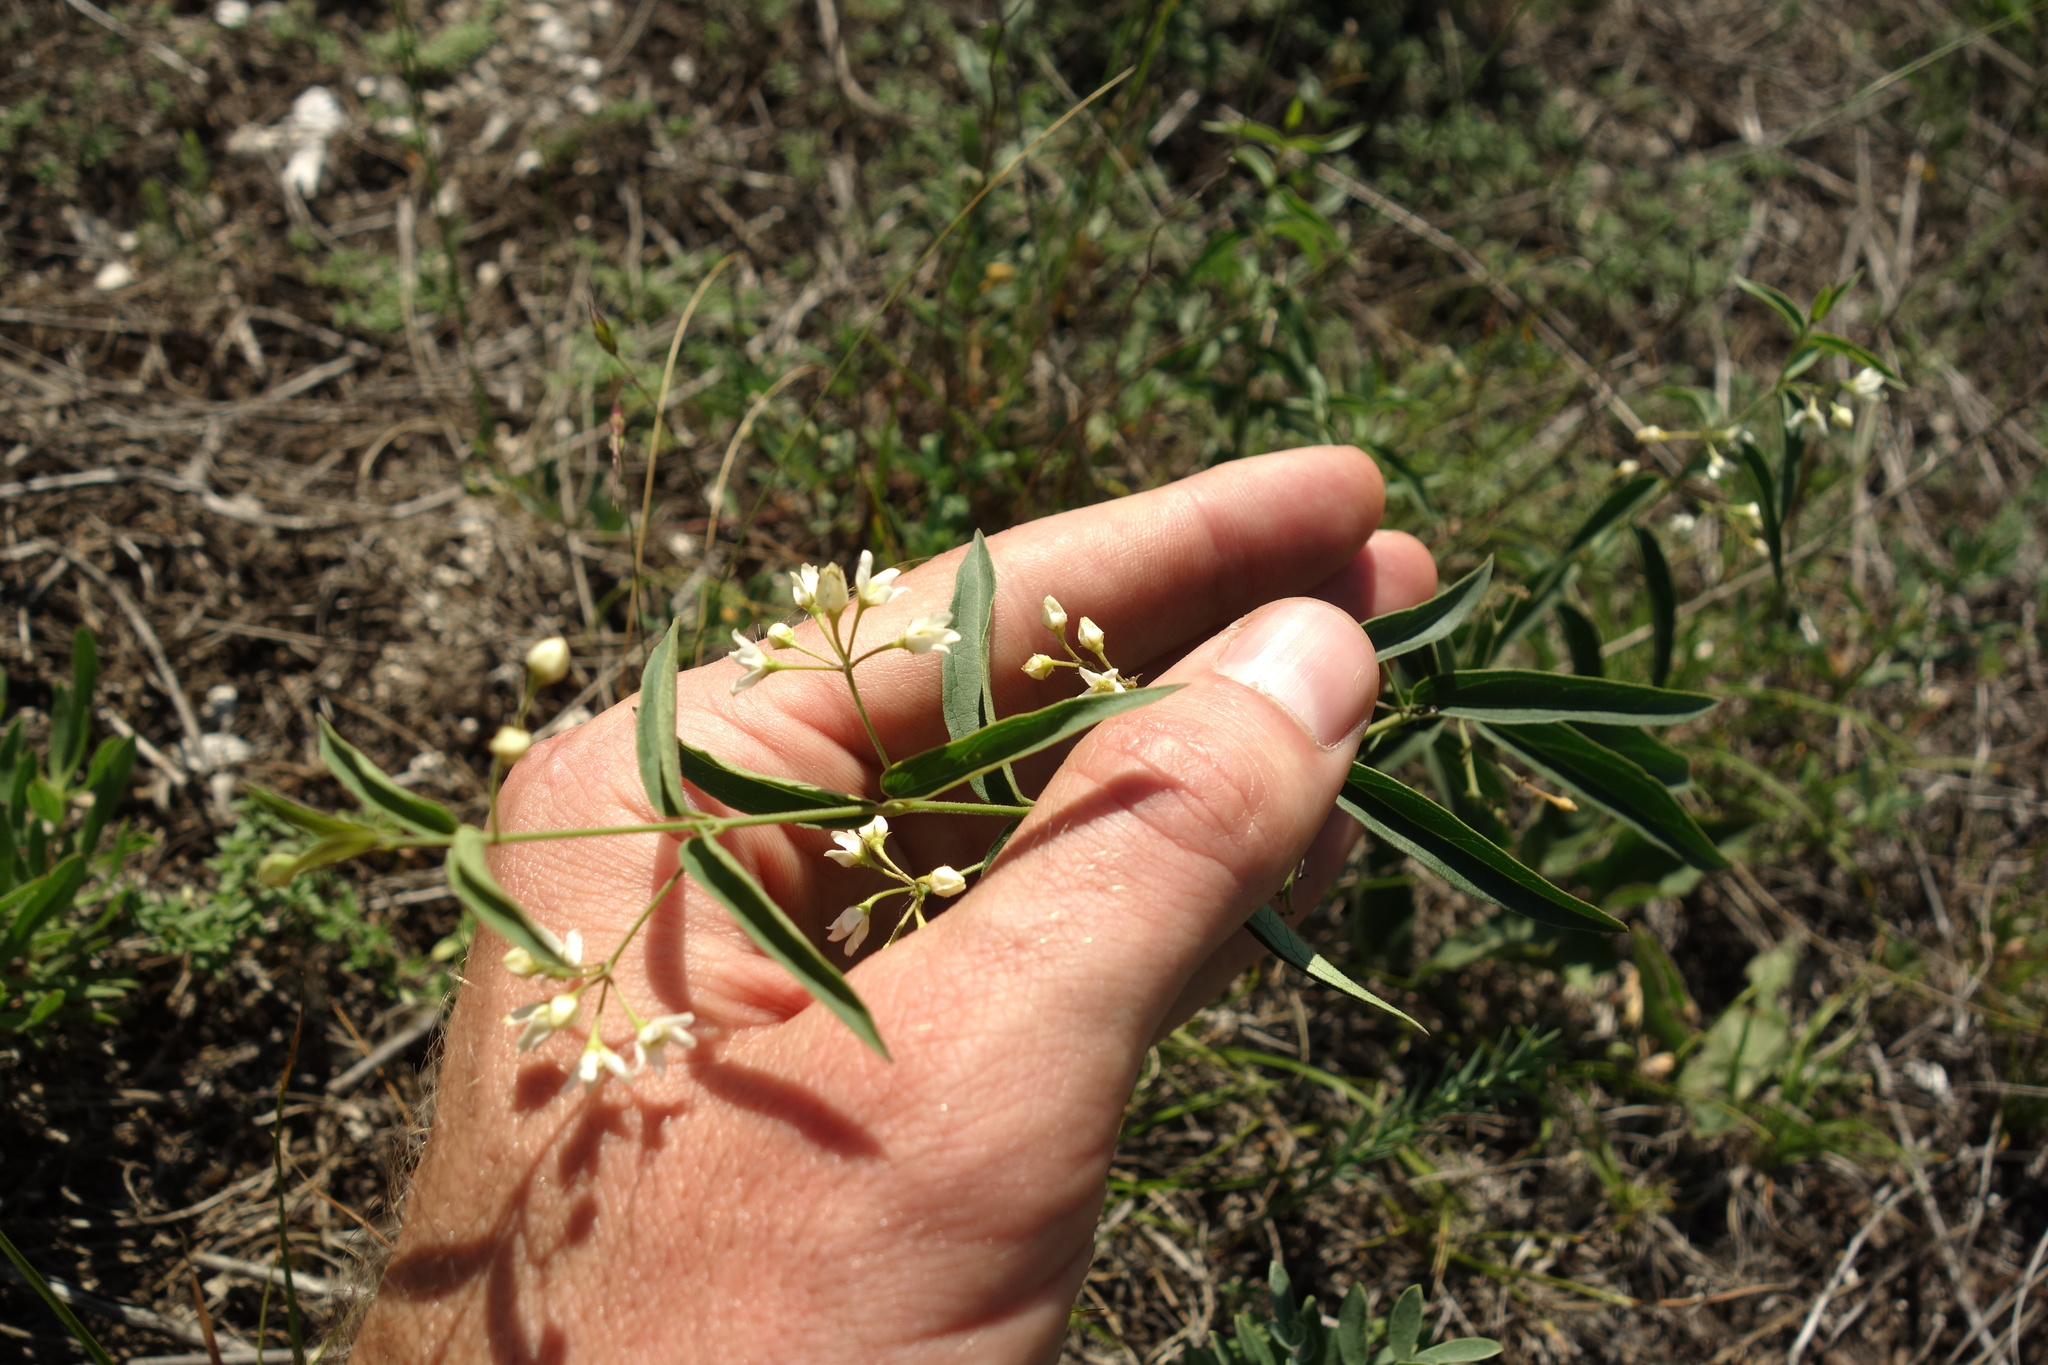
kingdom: Plantae
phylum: Tracheophyta
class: Magnoliopsida
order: Gentianales
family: Apocynaceae
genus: Vincetoxicum
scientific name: Vincetoxicum hirundinaria
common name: White swallowwort
